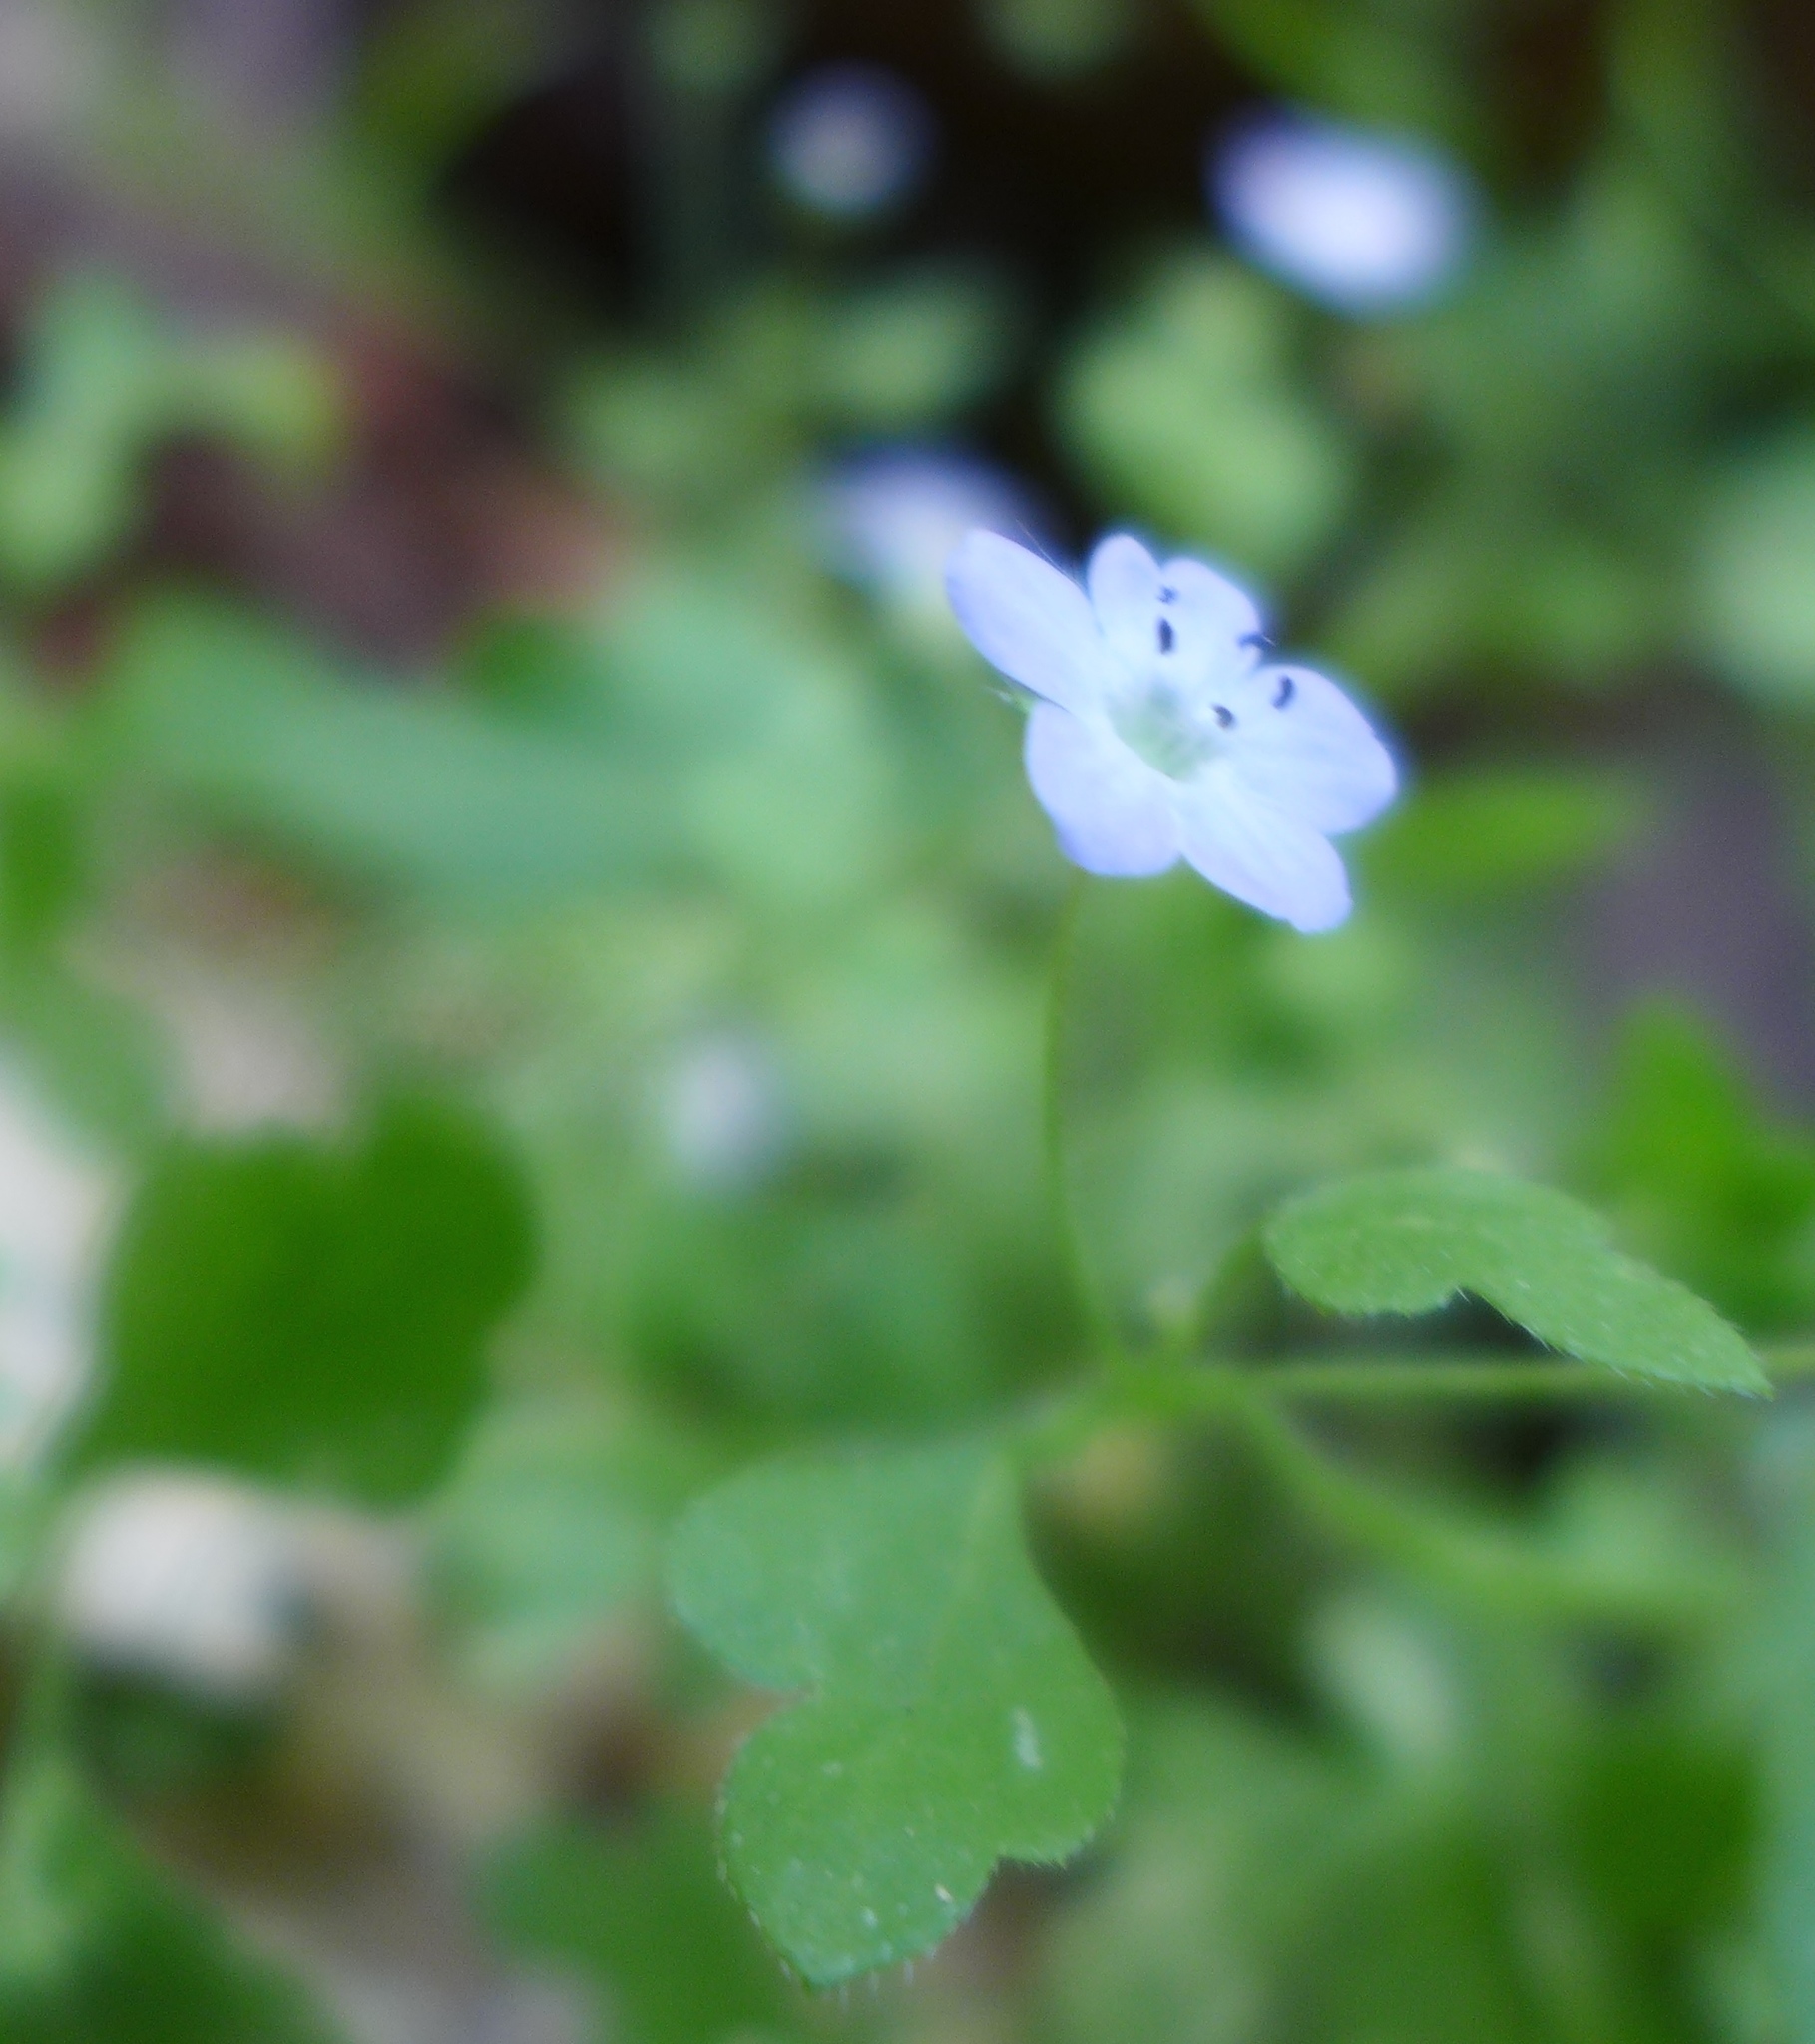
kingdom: Plantae
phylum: Tracheophyta
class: Magnoliopsida
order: Boraginales
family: Hydrophyllaceae
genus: Nemophila
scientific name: Nemophila heterophylla
